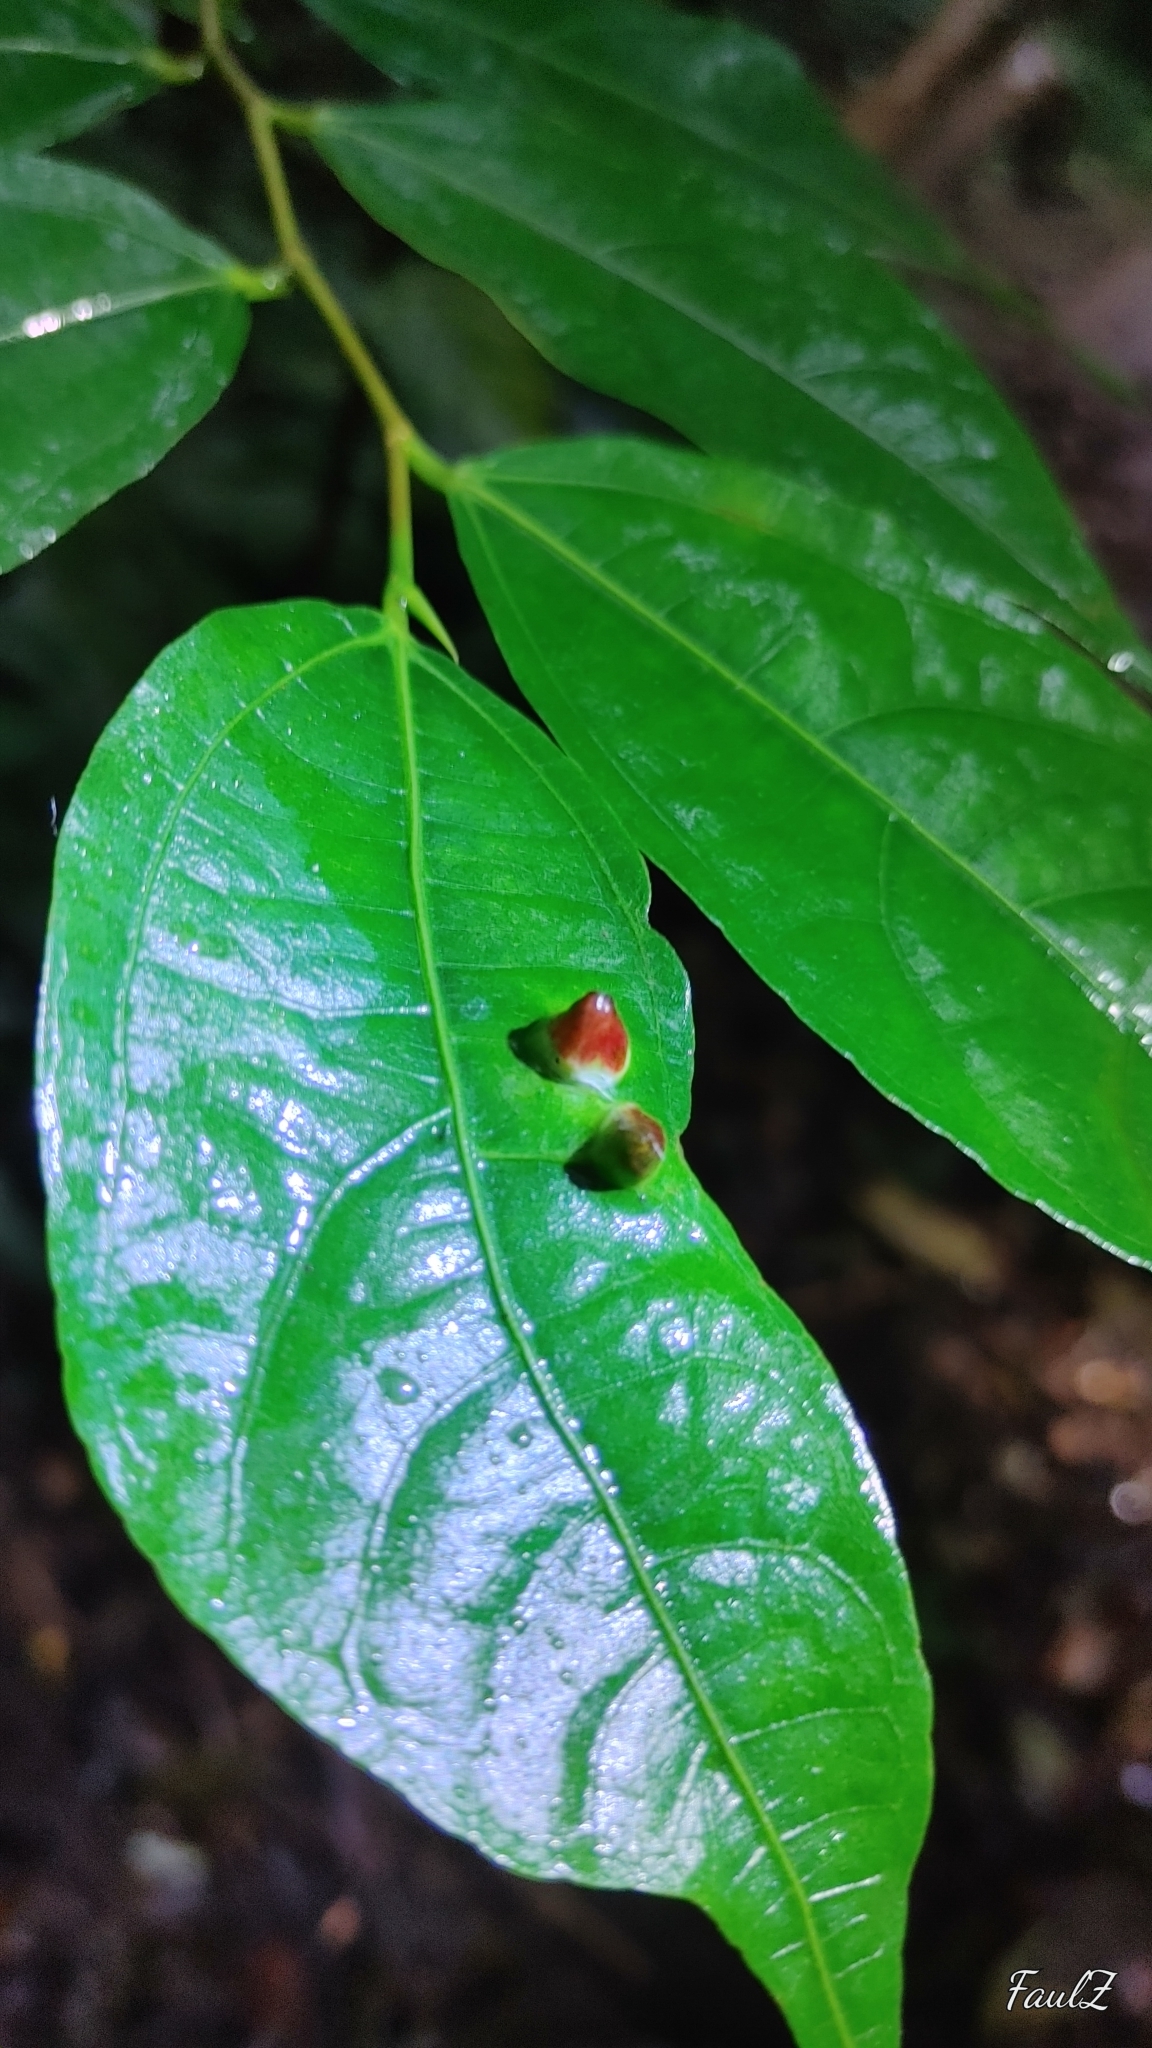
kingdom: Plantae
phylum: Tracheophyta
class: Magnoliopsida
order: Rosales
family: Moraceae
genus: Ficus
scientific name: Ficus ampelos
